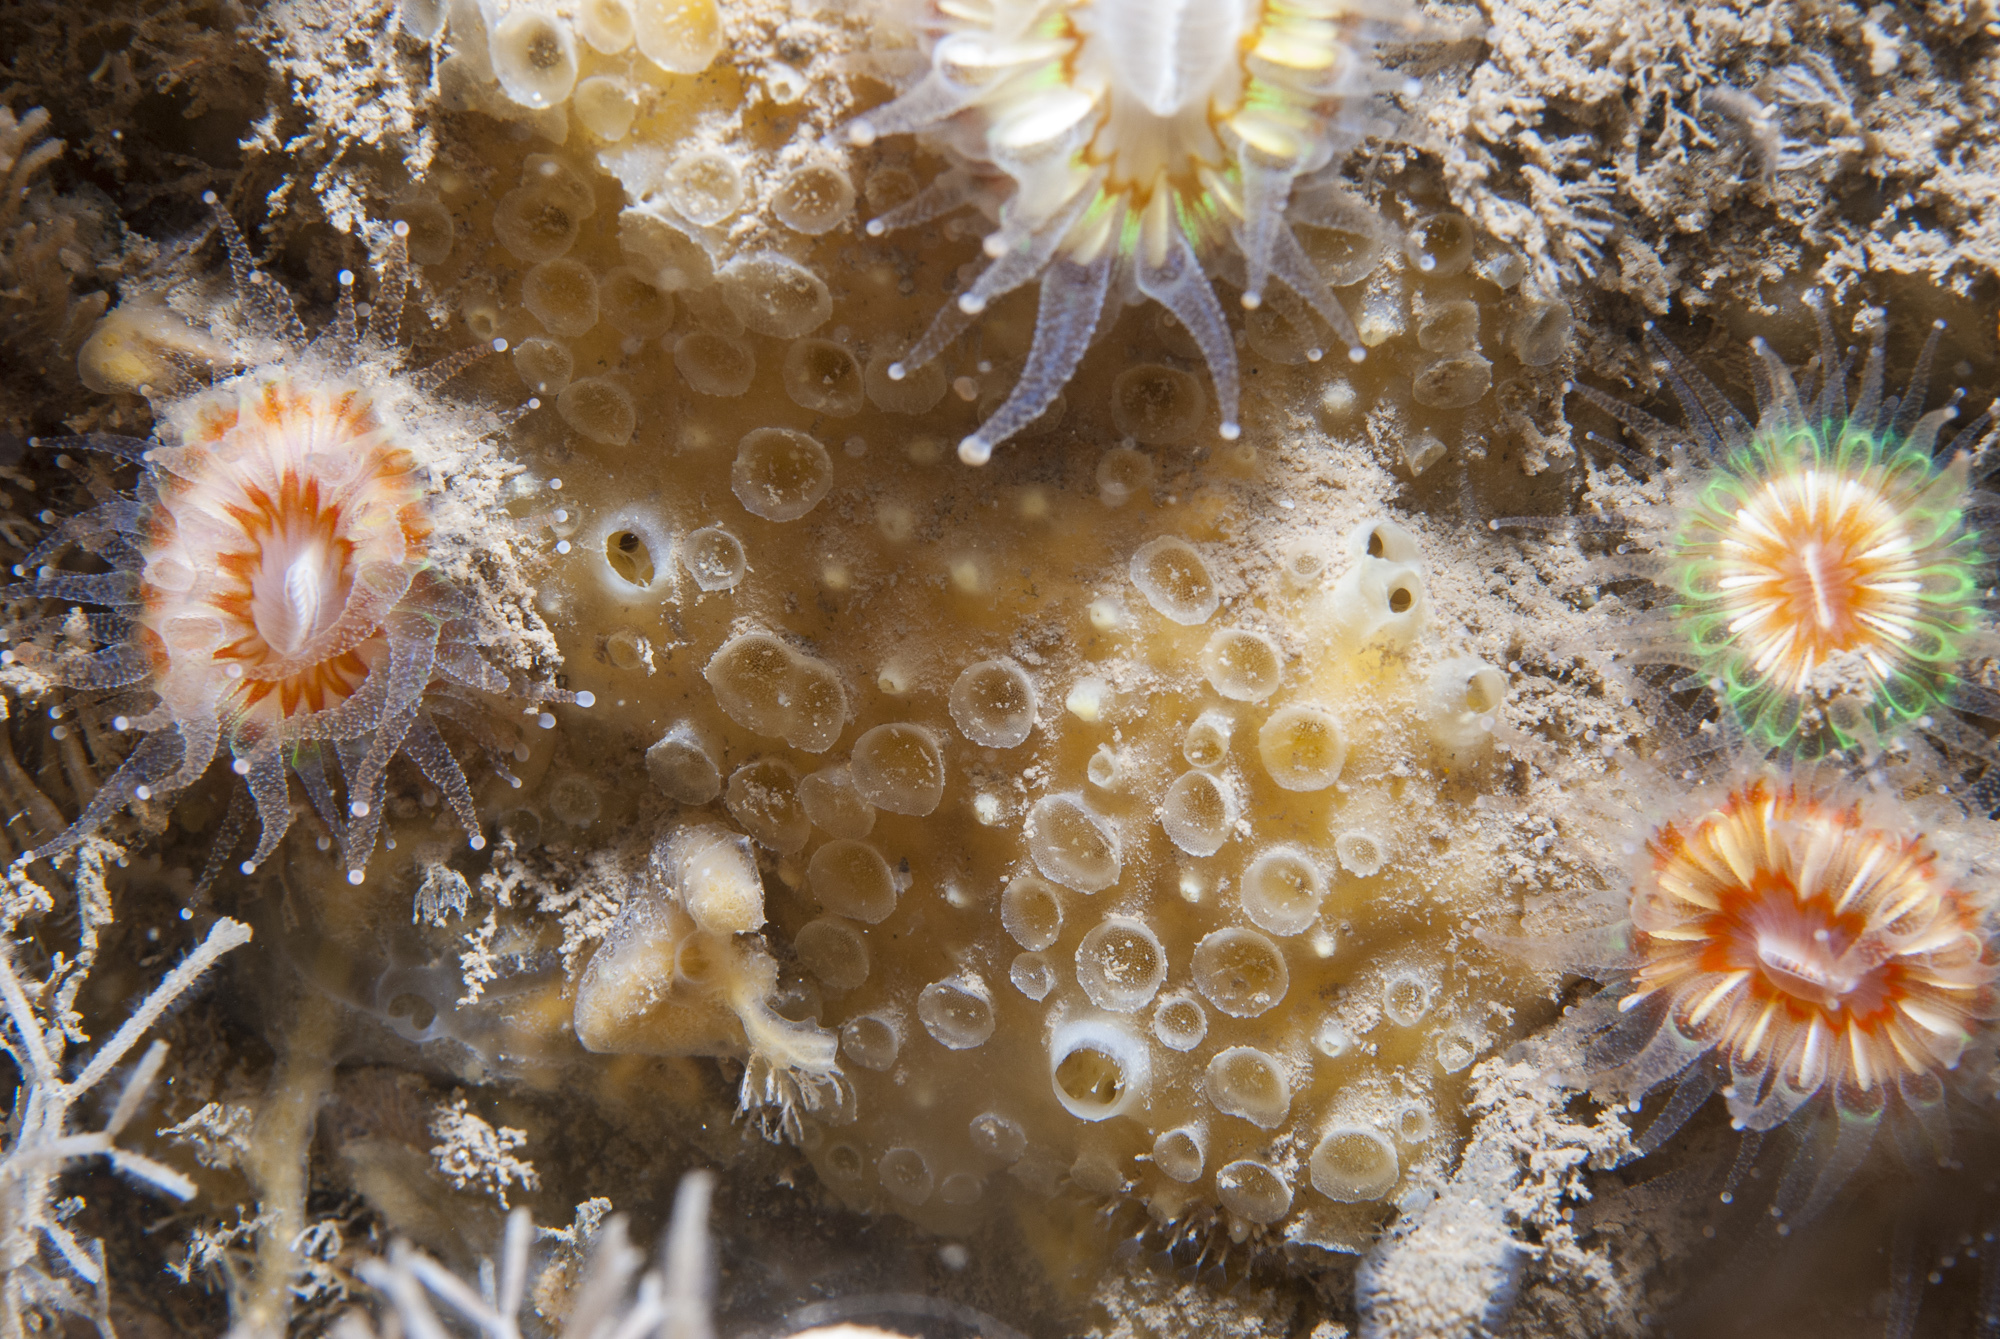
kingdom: Animalia
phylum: Porifera
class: Demospongiae
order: Poecilosclerida
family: Coelosphaeridae
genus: Lissodendoryx
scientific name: Lissodendoryx jenjonesae
